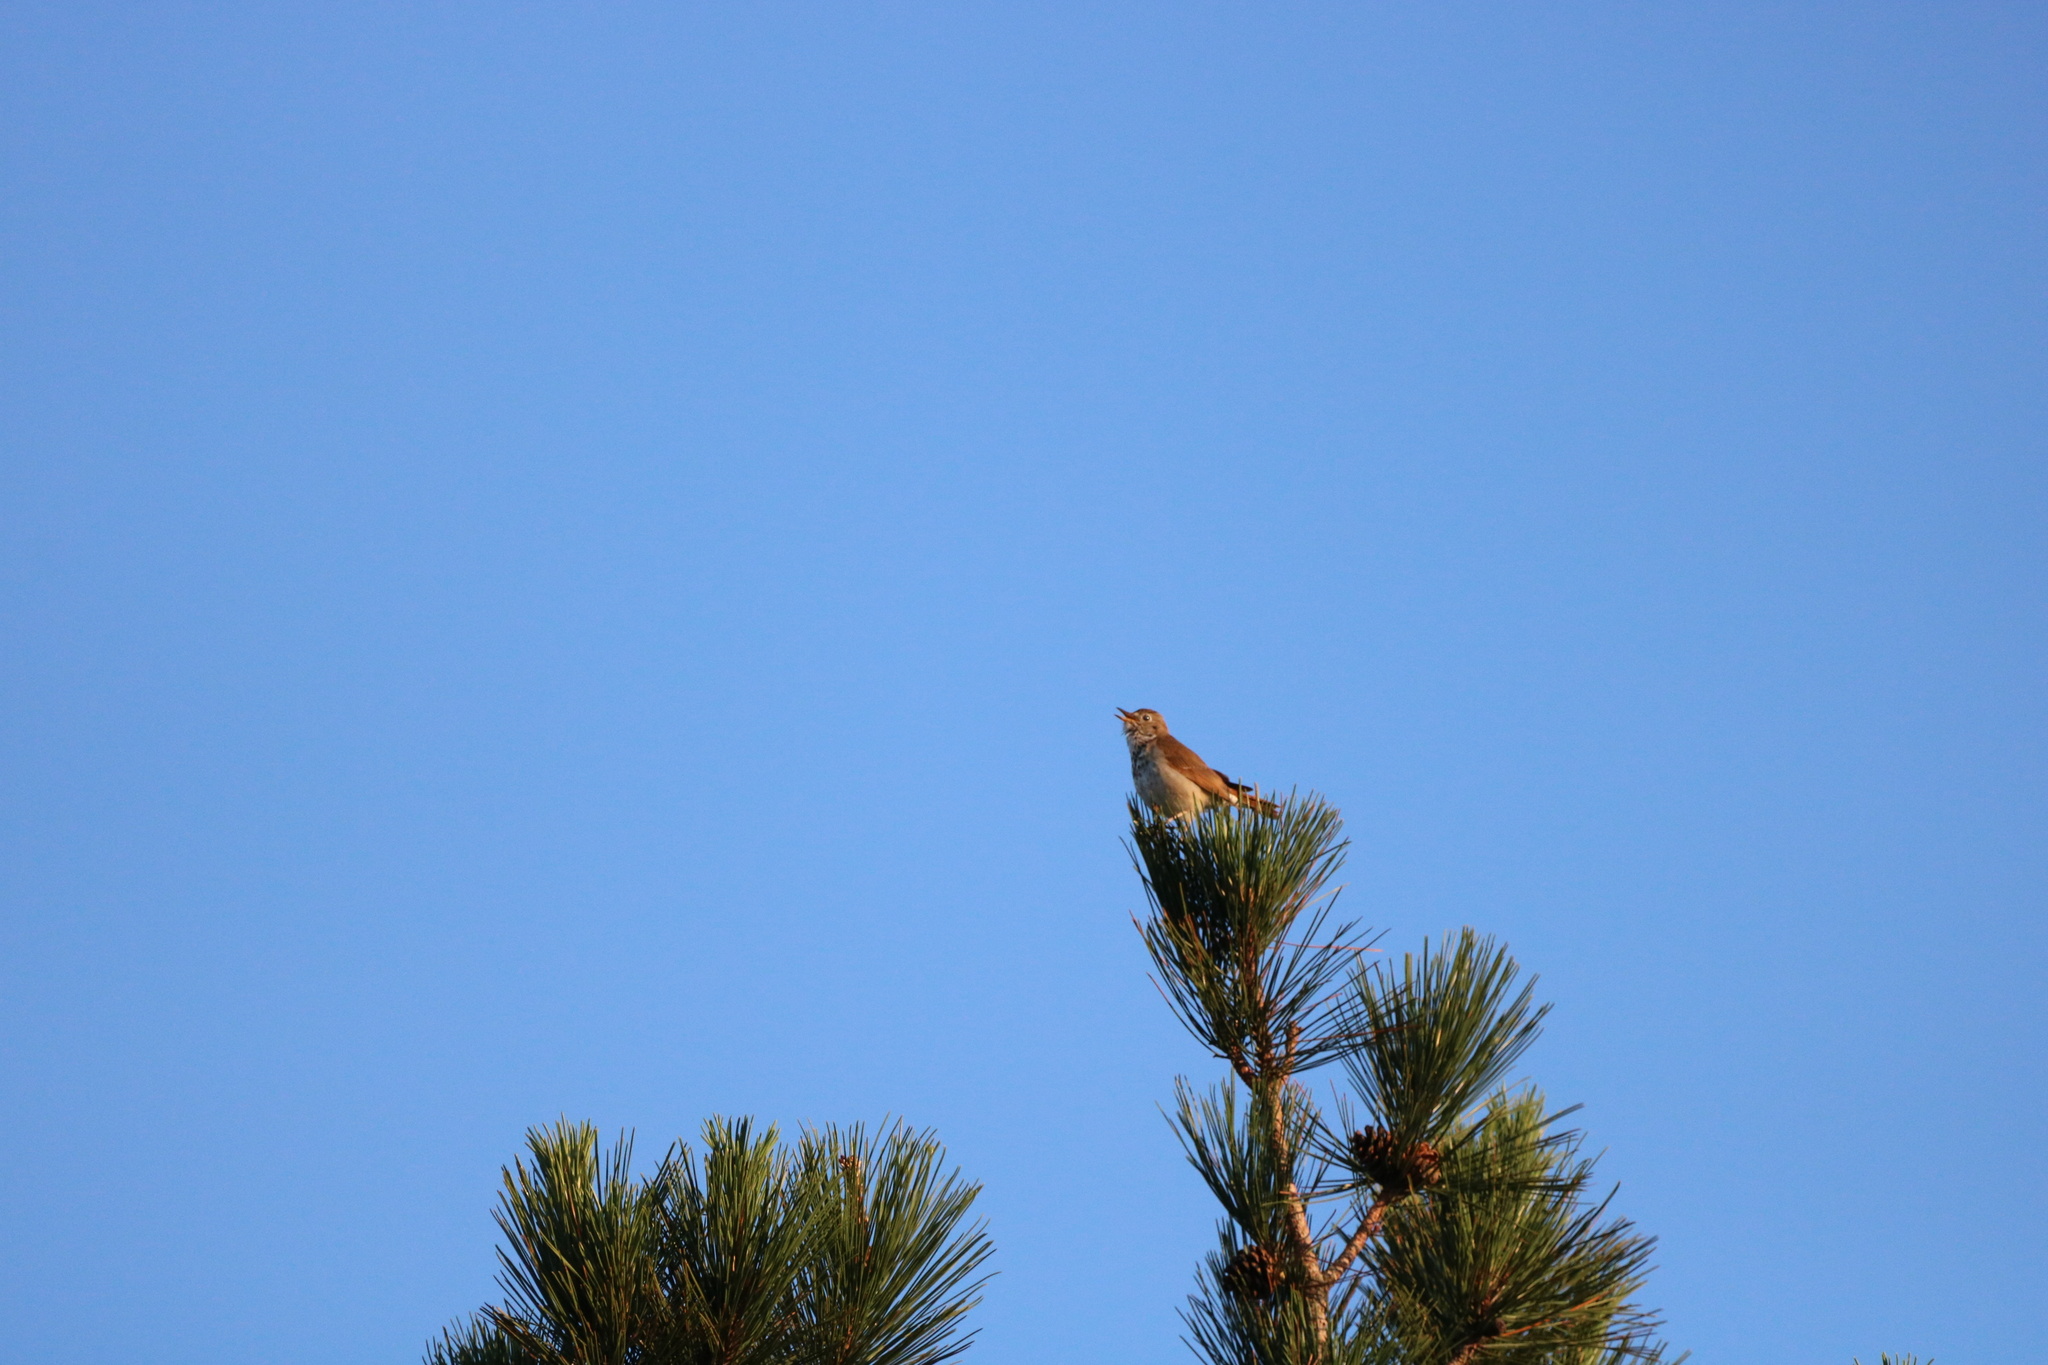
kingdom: Animalia
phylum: Chordata
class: Aves
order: Passeriformes
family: Turdidae
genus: Catharus
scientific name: Catharus guttatus
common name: Hermit thrush
